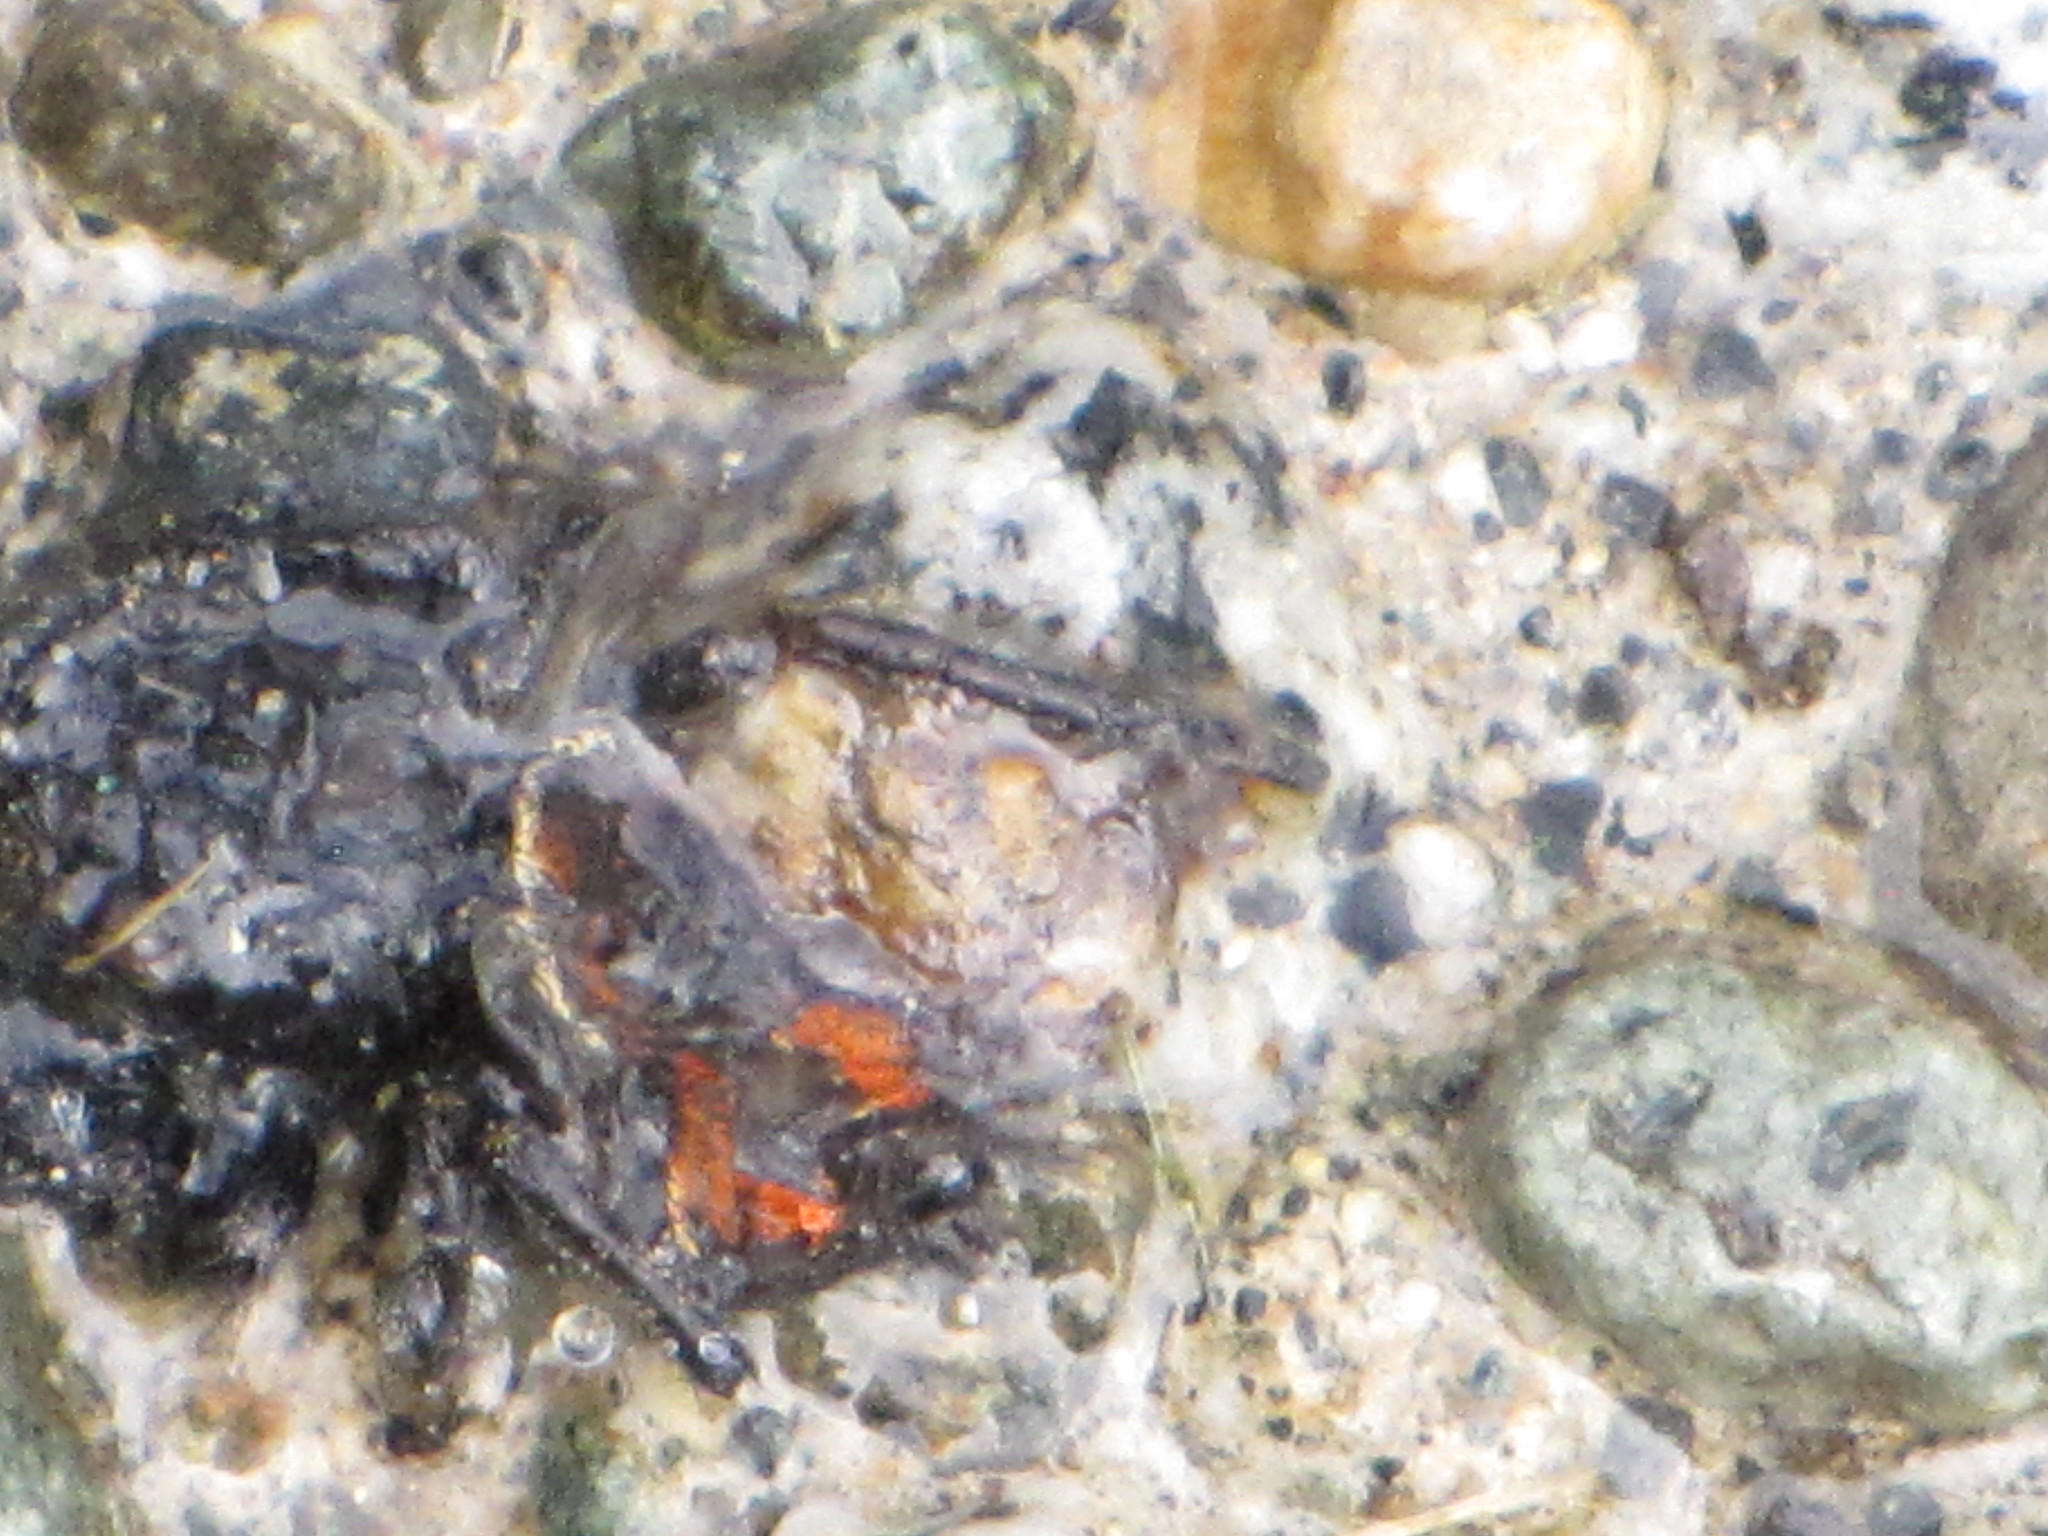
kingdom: Animalia
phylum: Arthropoda
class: Arachnida
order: Araneae
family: Salticidae
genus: Phidippus
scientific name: Phidippus johnsoni
